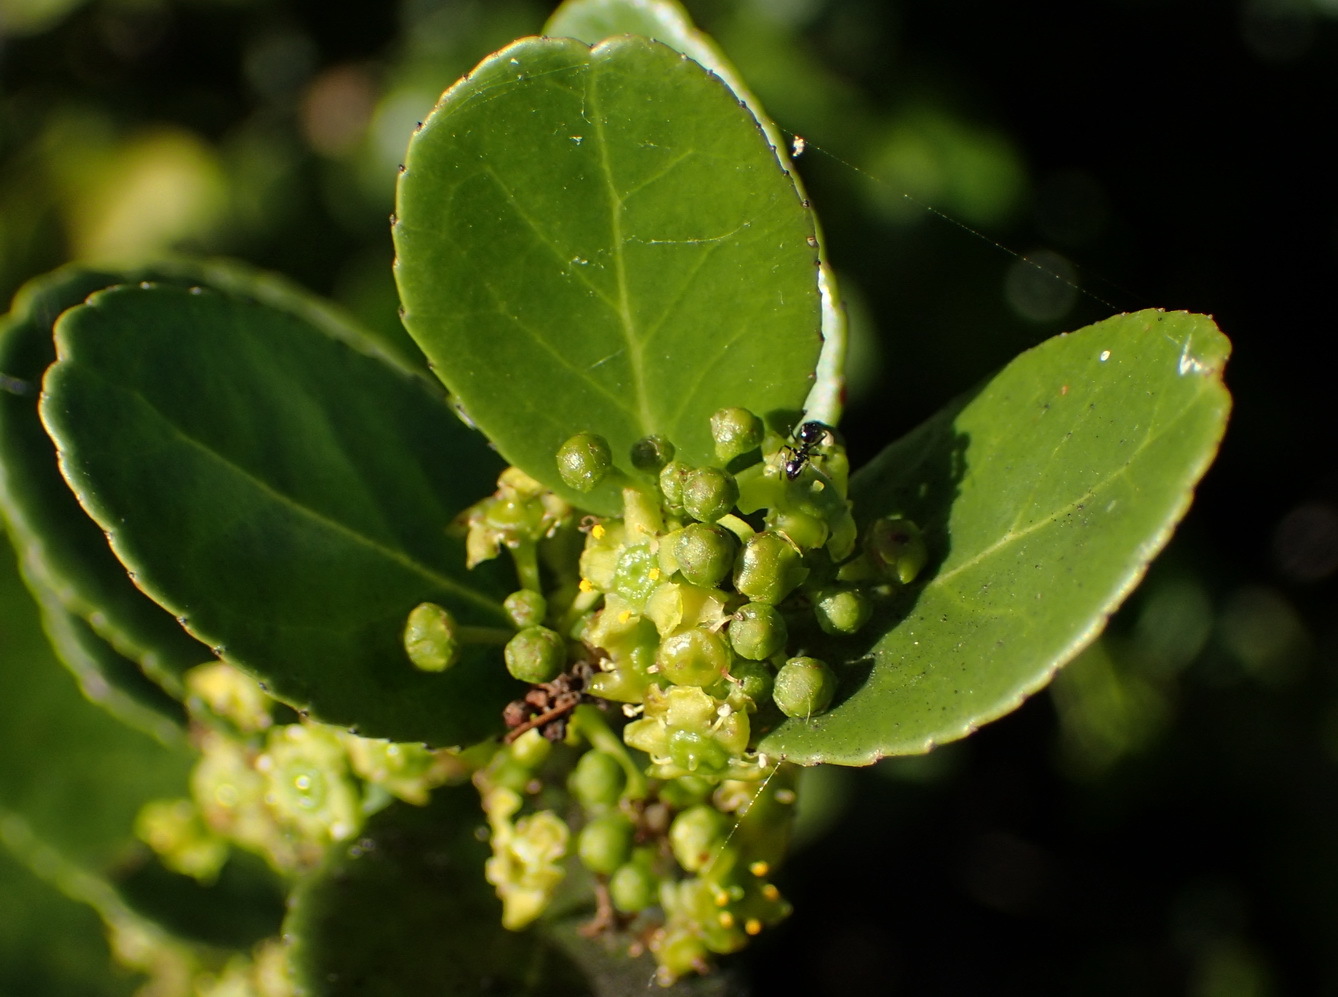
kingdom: Plantae
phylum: Tracheophyta
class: Magnoliopsida
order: Celastrales
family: Celastraceae
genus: Mystroxylon
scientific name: Mystroxylon aethiopicum
